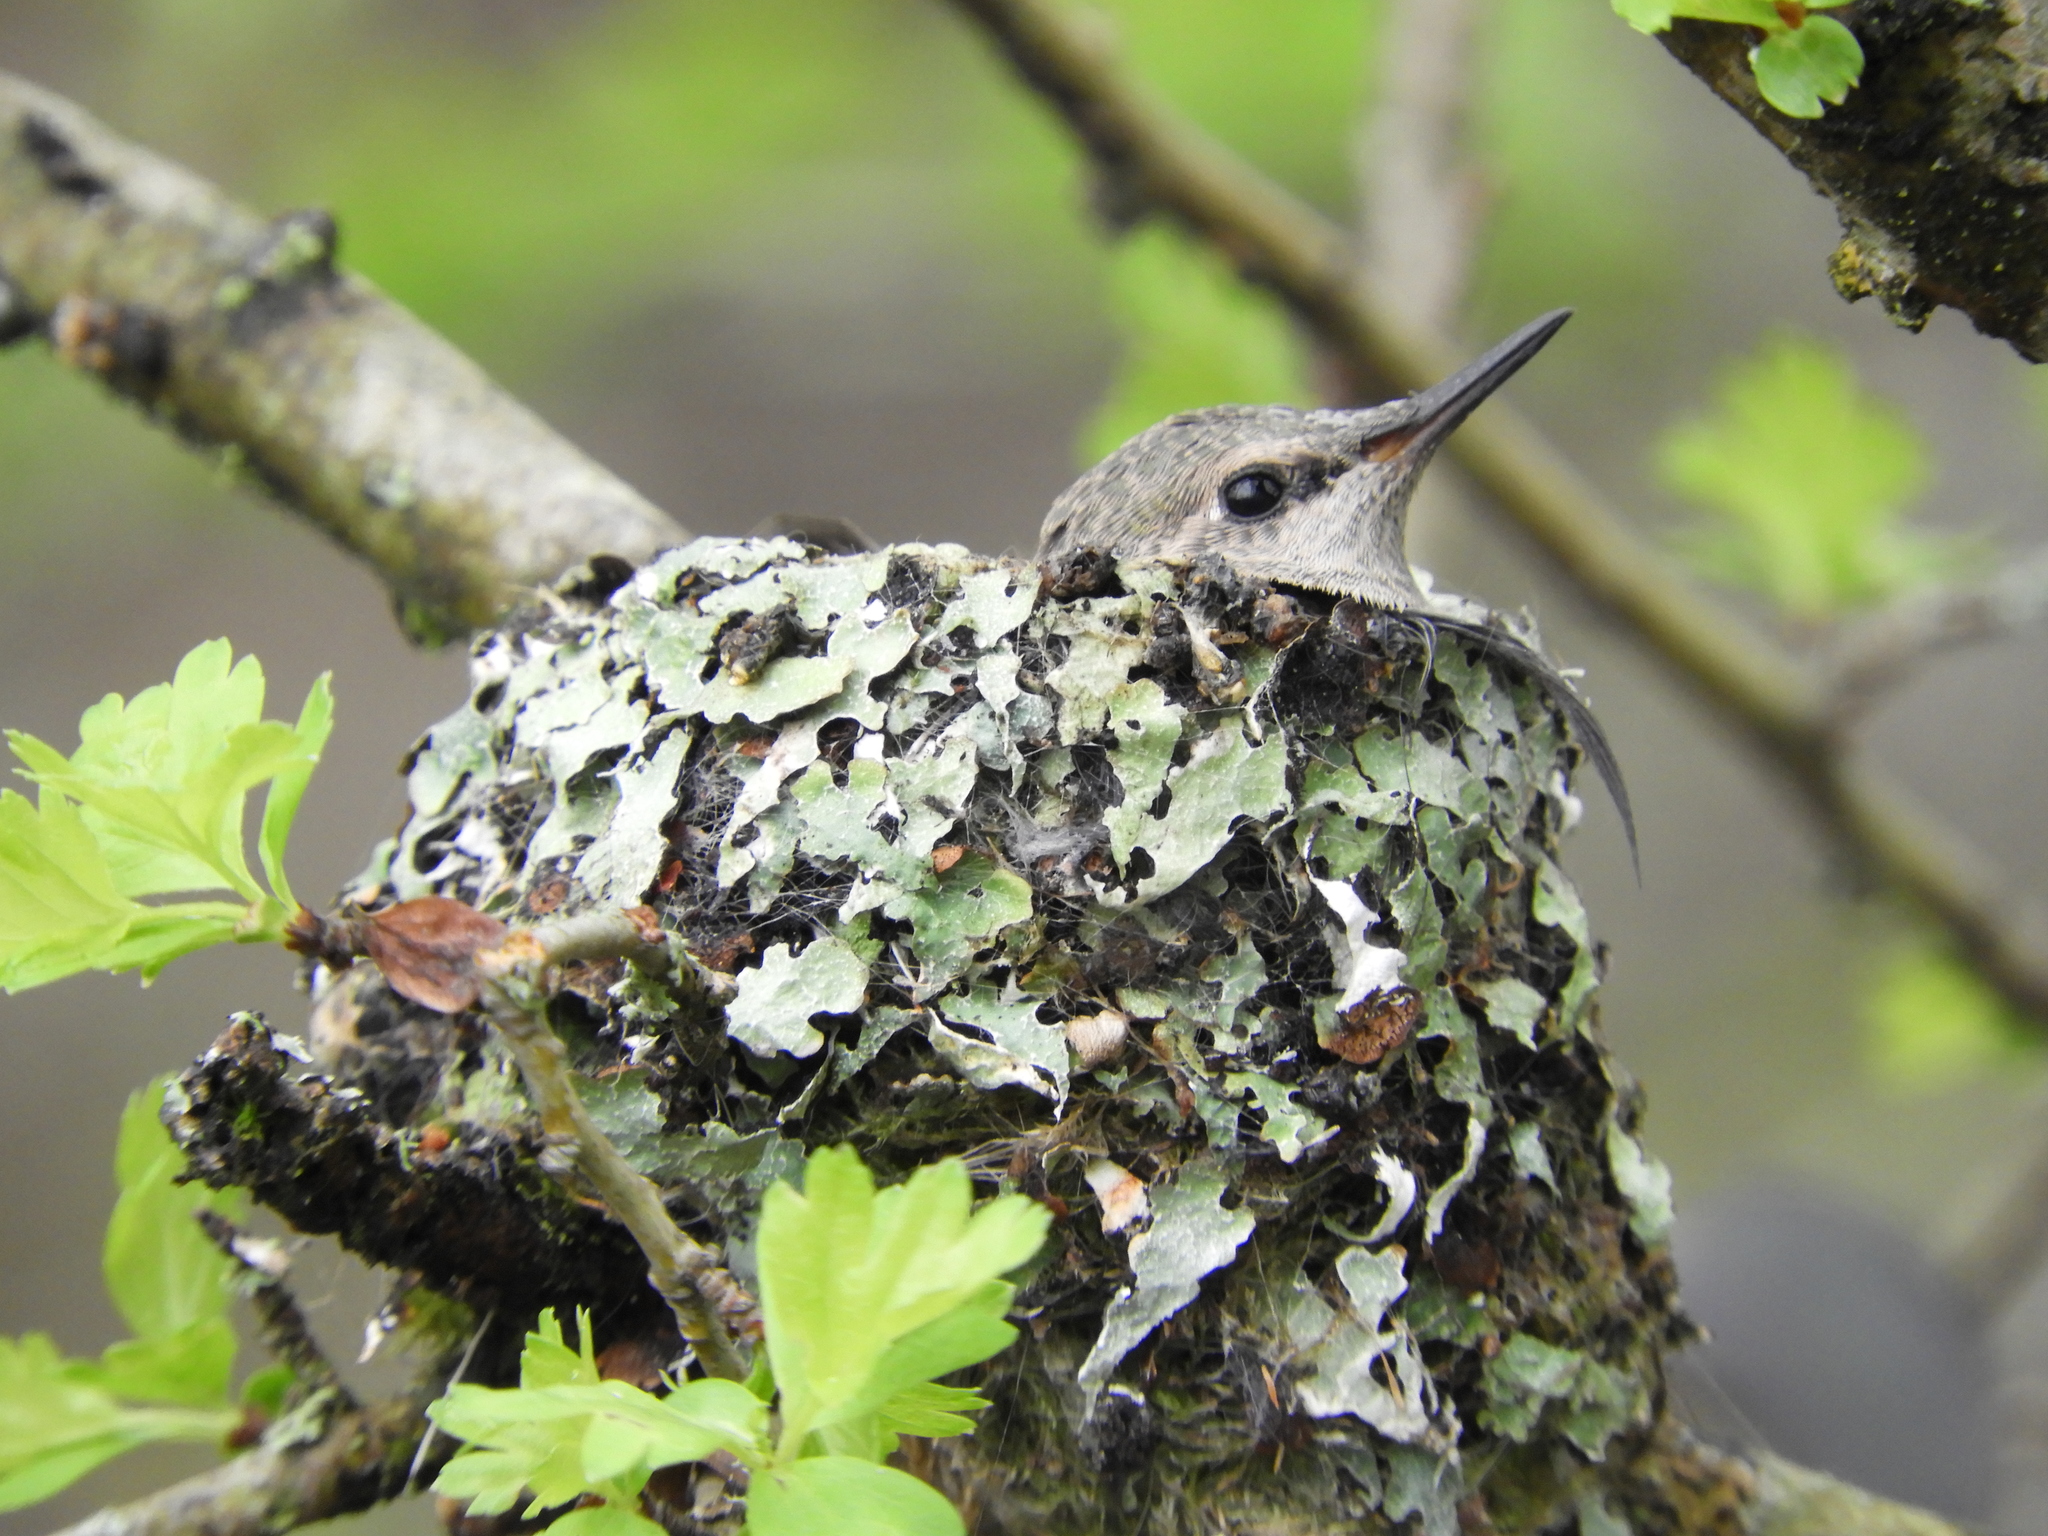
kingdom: Animalia
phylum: Chordata
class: Aves
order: Apodiformes
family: Trochilidae
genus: Calypte
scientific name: Calypte anna
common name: Anna's hummingbird
